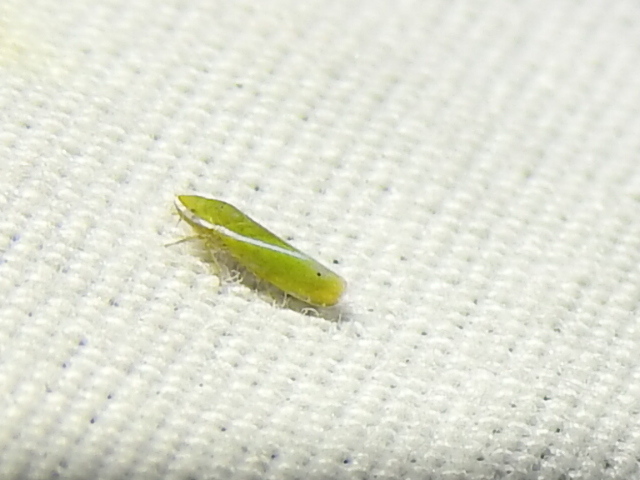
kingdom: Animalia
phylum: Arthropoda
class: Insecta
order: Hemiptera
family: Cicadellidae
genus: Alconeura
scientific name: Alconeura fulminea
